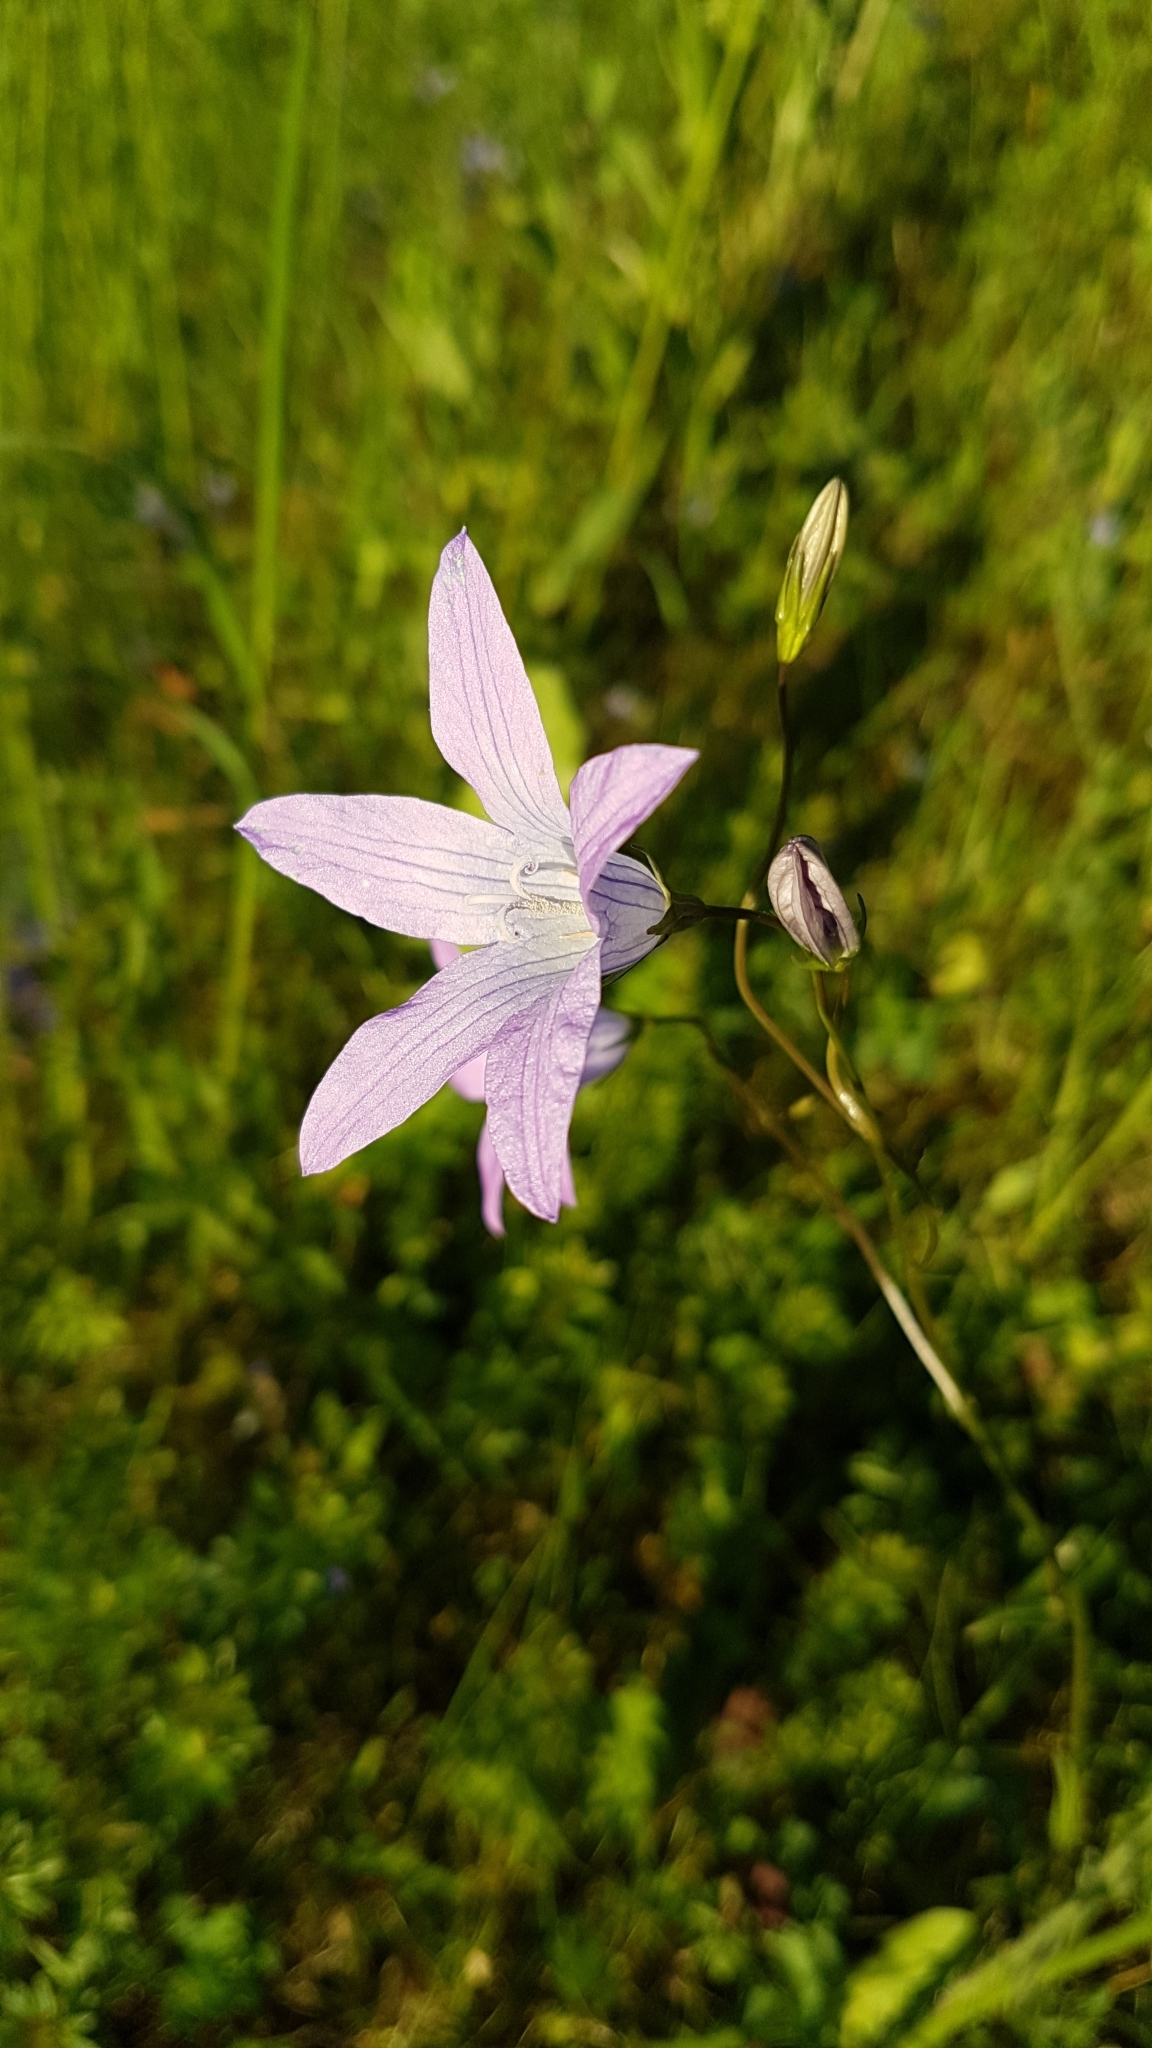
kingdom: Plantae
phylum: Tracheophyta
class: Magnoliopsida
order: Asterales
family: Campanulaceae
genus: Campanula
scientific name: Campanula patula
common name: Spreading bellflower
